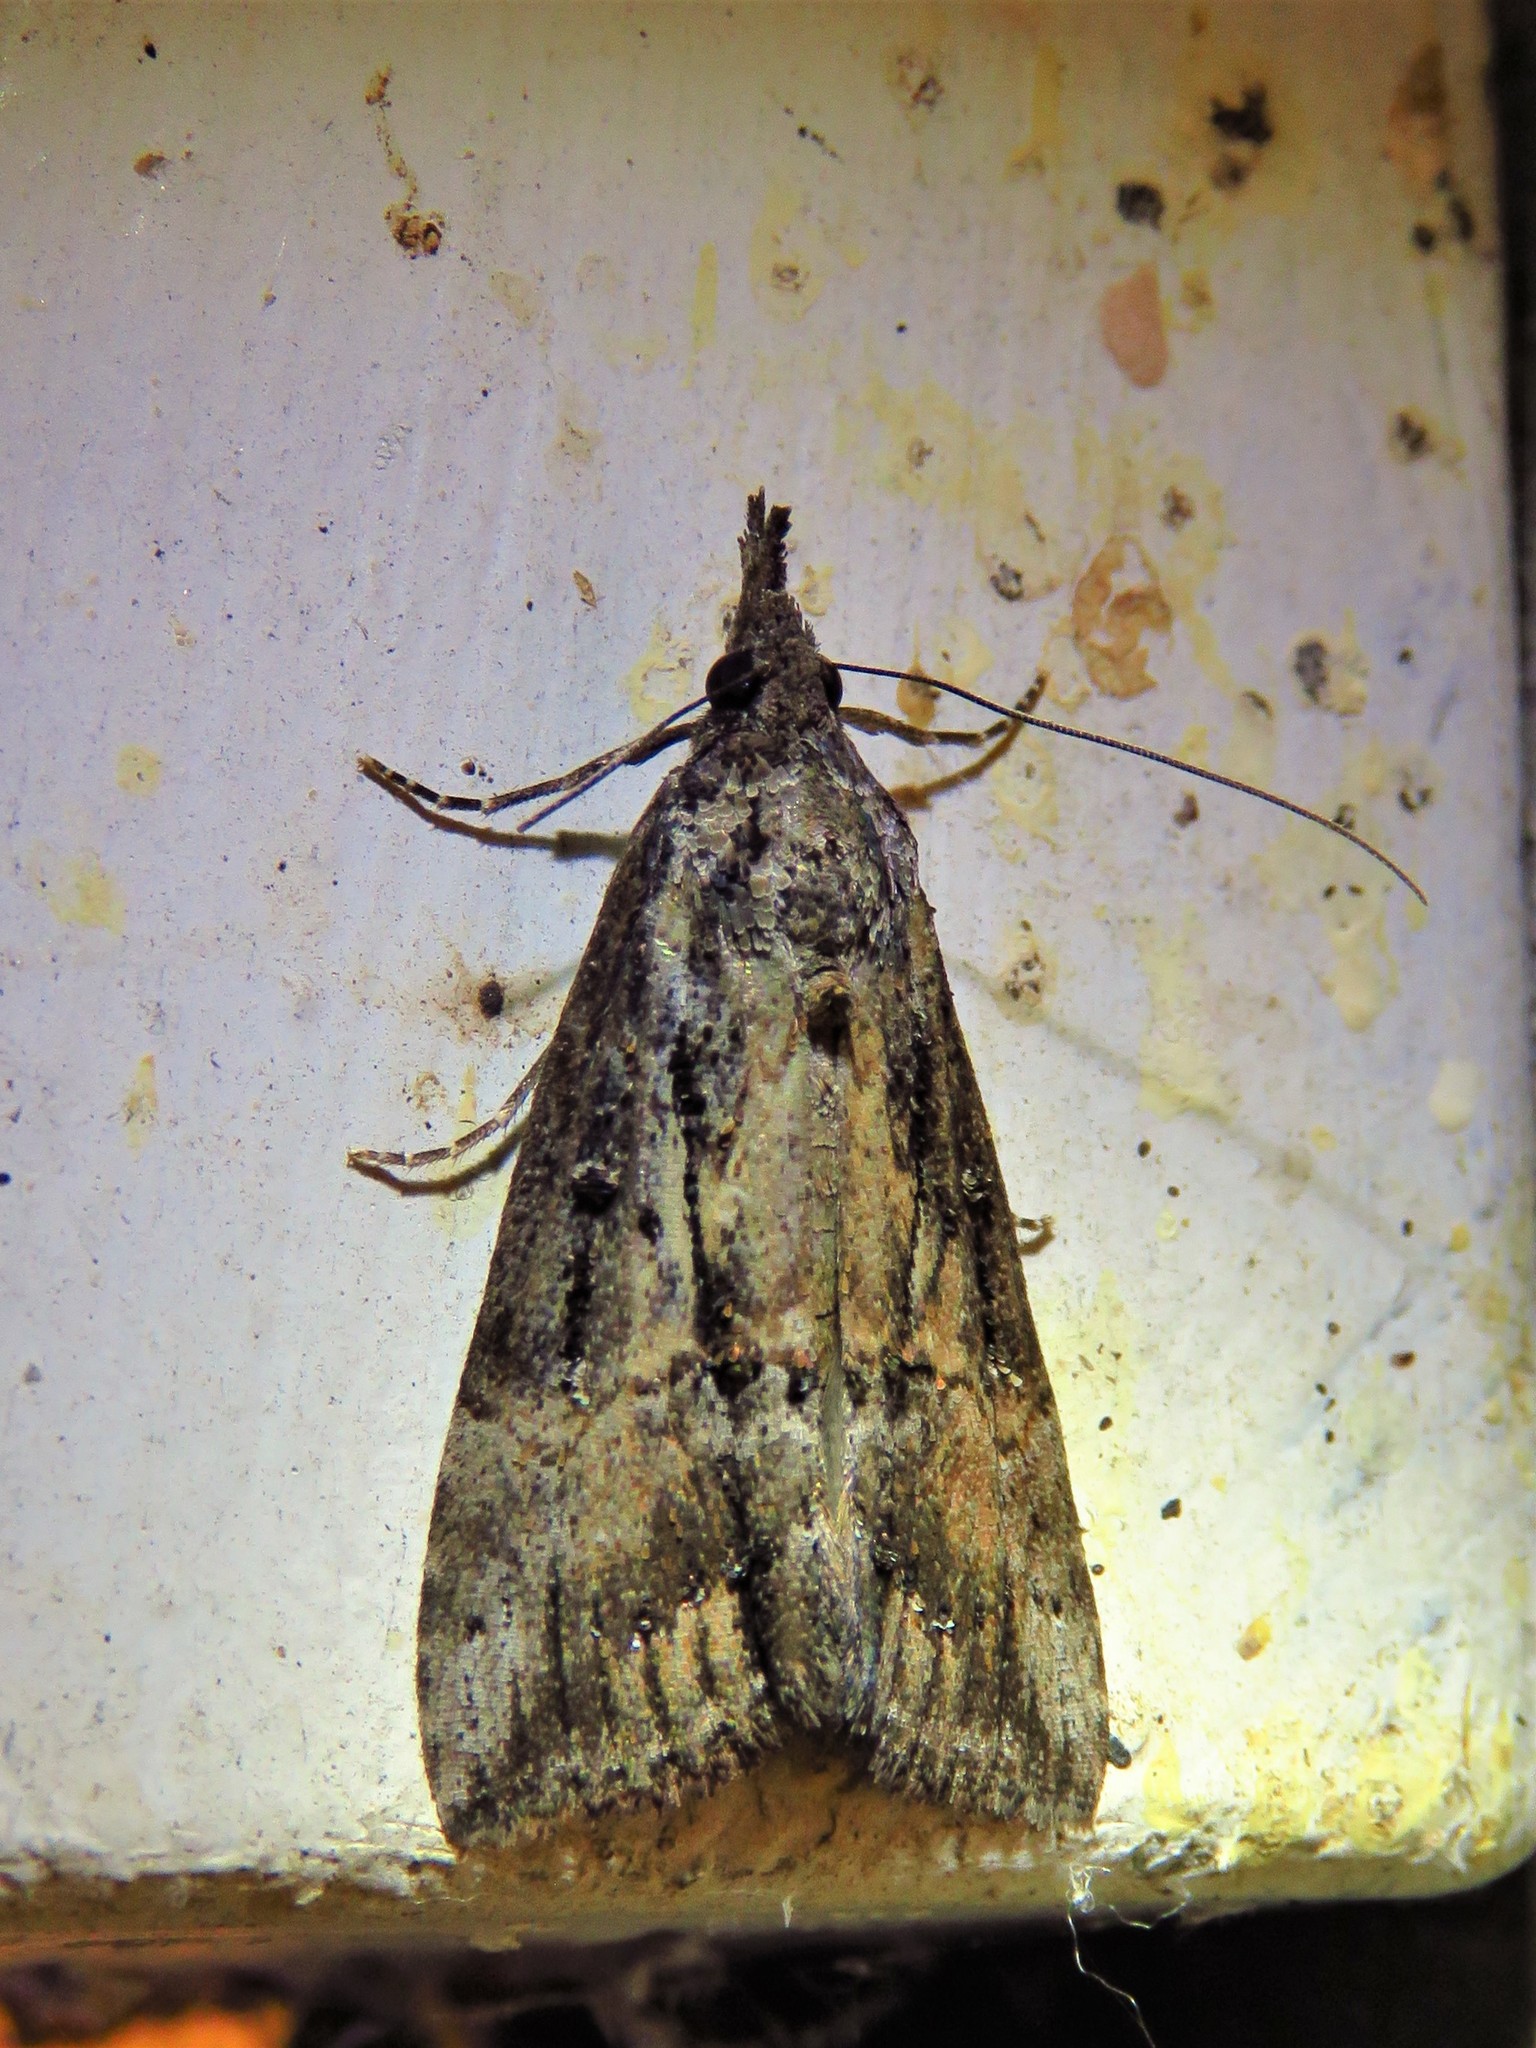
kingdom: Animalia
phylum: Arthropoda
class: Insecta
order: Lepidoptera
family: Erebidae
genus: Hypena
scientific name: Hypena scabra
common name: Green cloverworm
